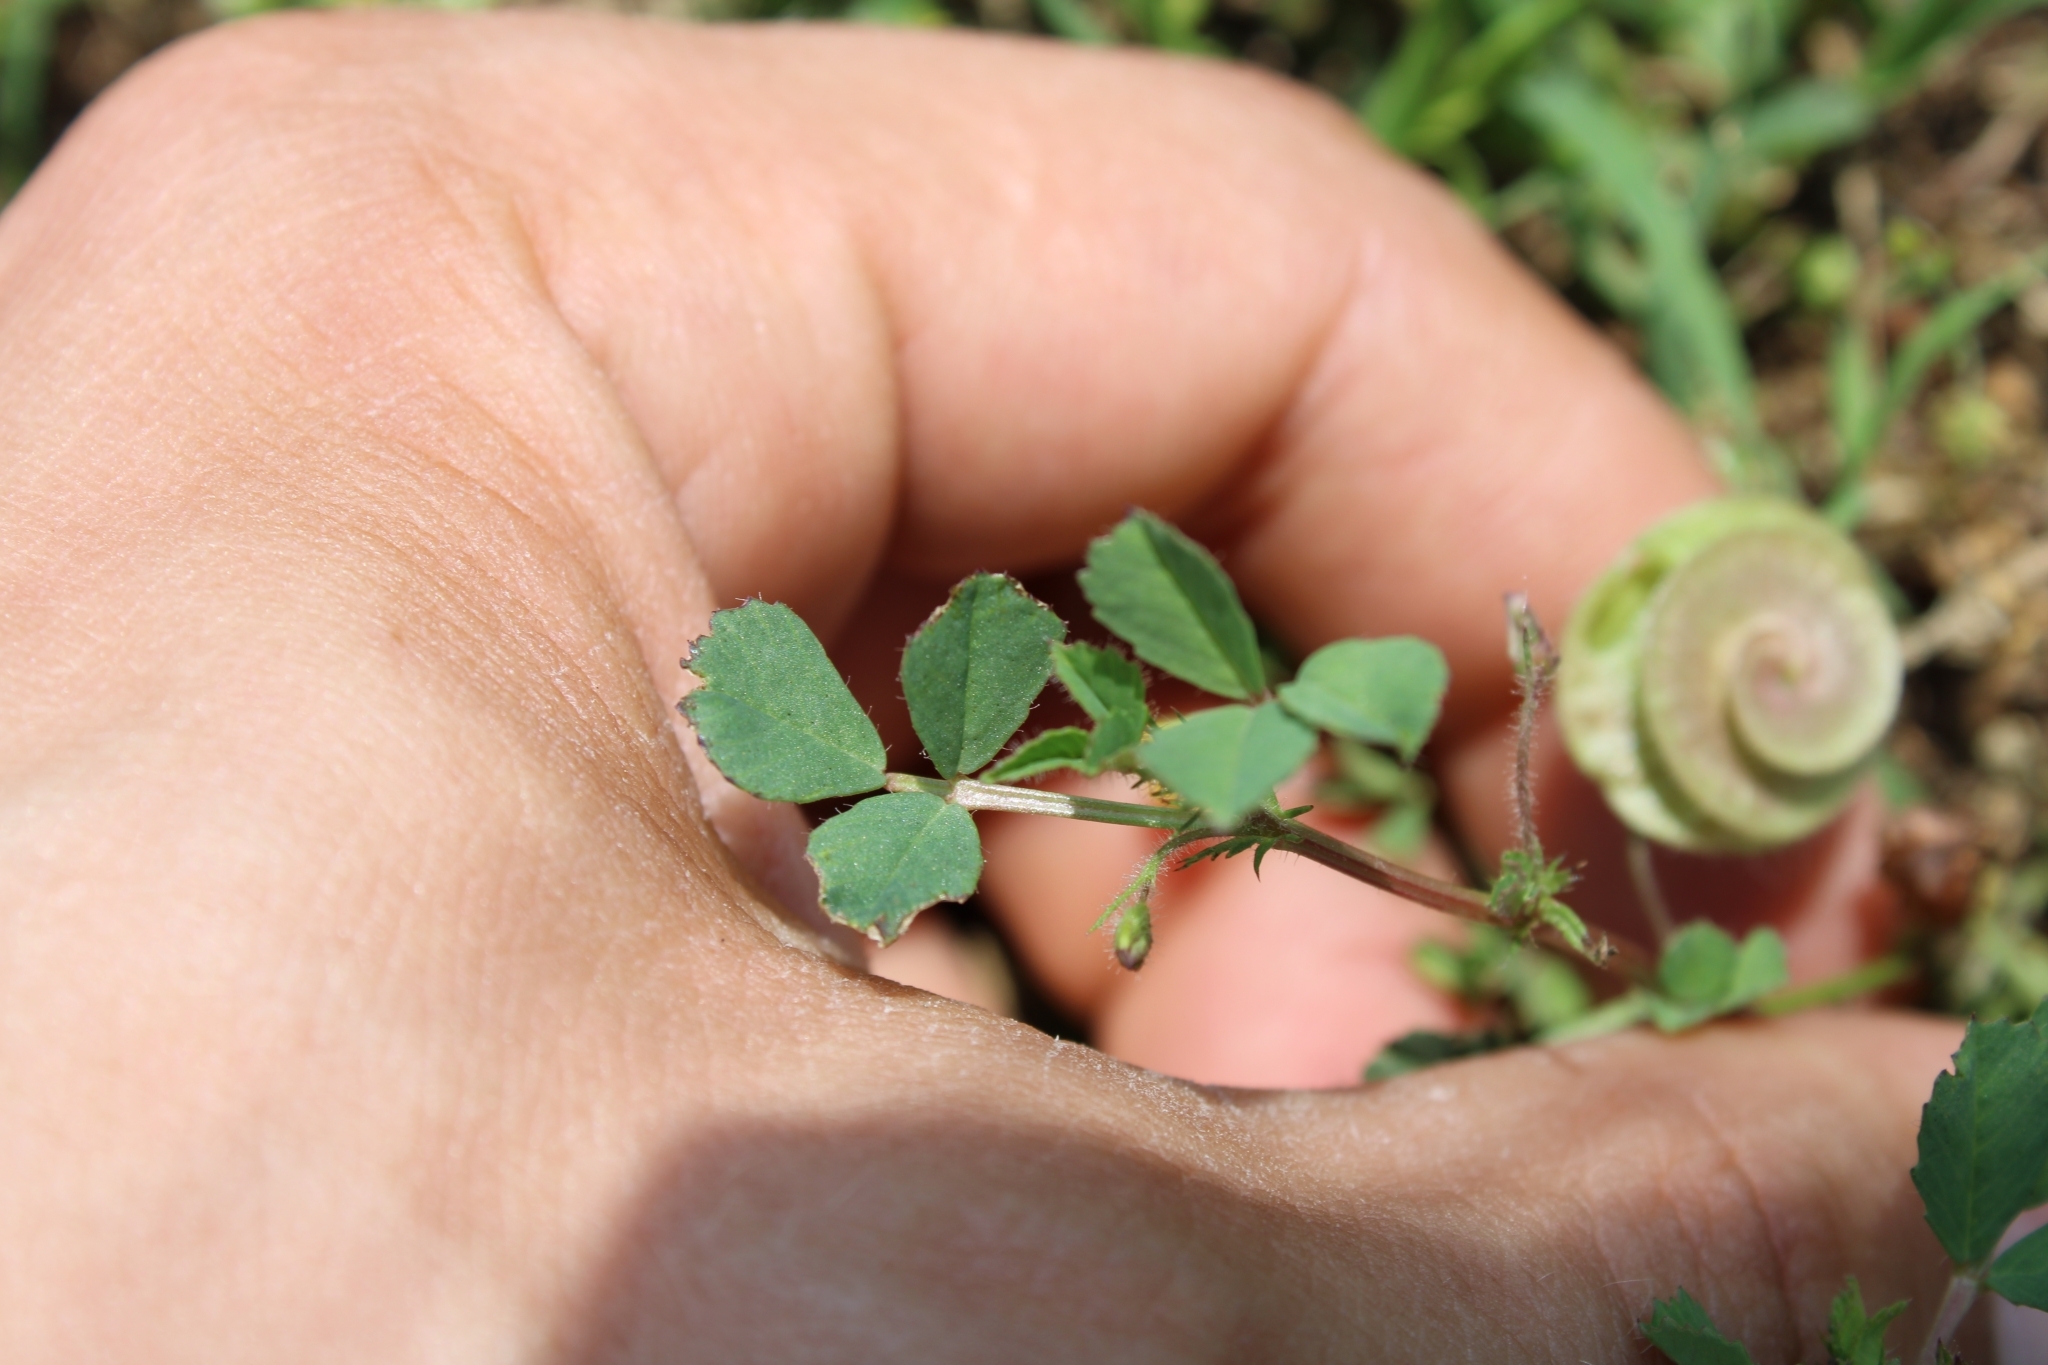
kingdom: Plantae
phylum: Tracheophyta
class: Magnoliopsida
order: Fabales
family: Fabaceae
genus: Medicago
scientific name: Medicago orbicularis
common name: Button medick
